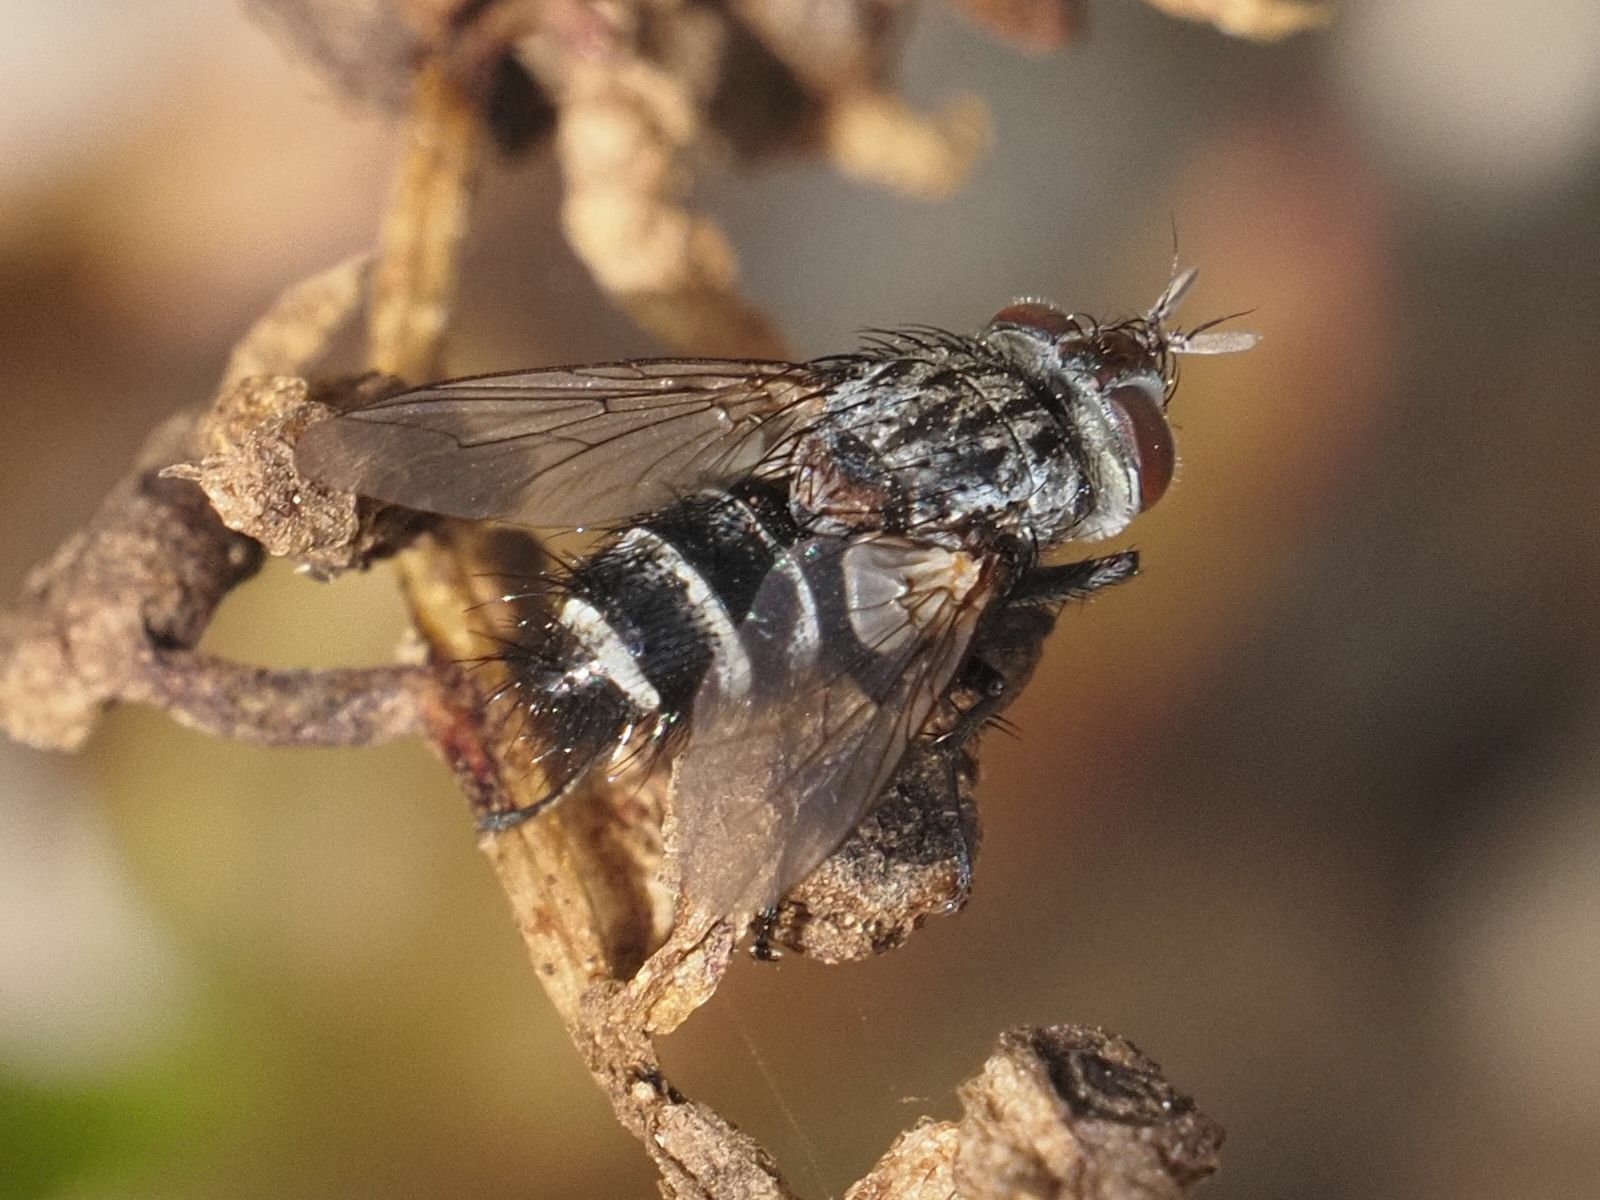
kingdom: Animalia
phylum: Arthropoda
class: Insecta
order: Diptera
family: Tachinidae
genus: Chetogena
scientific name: Chetogena acuminata
